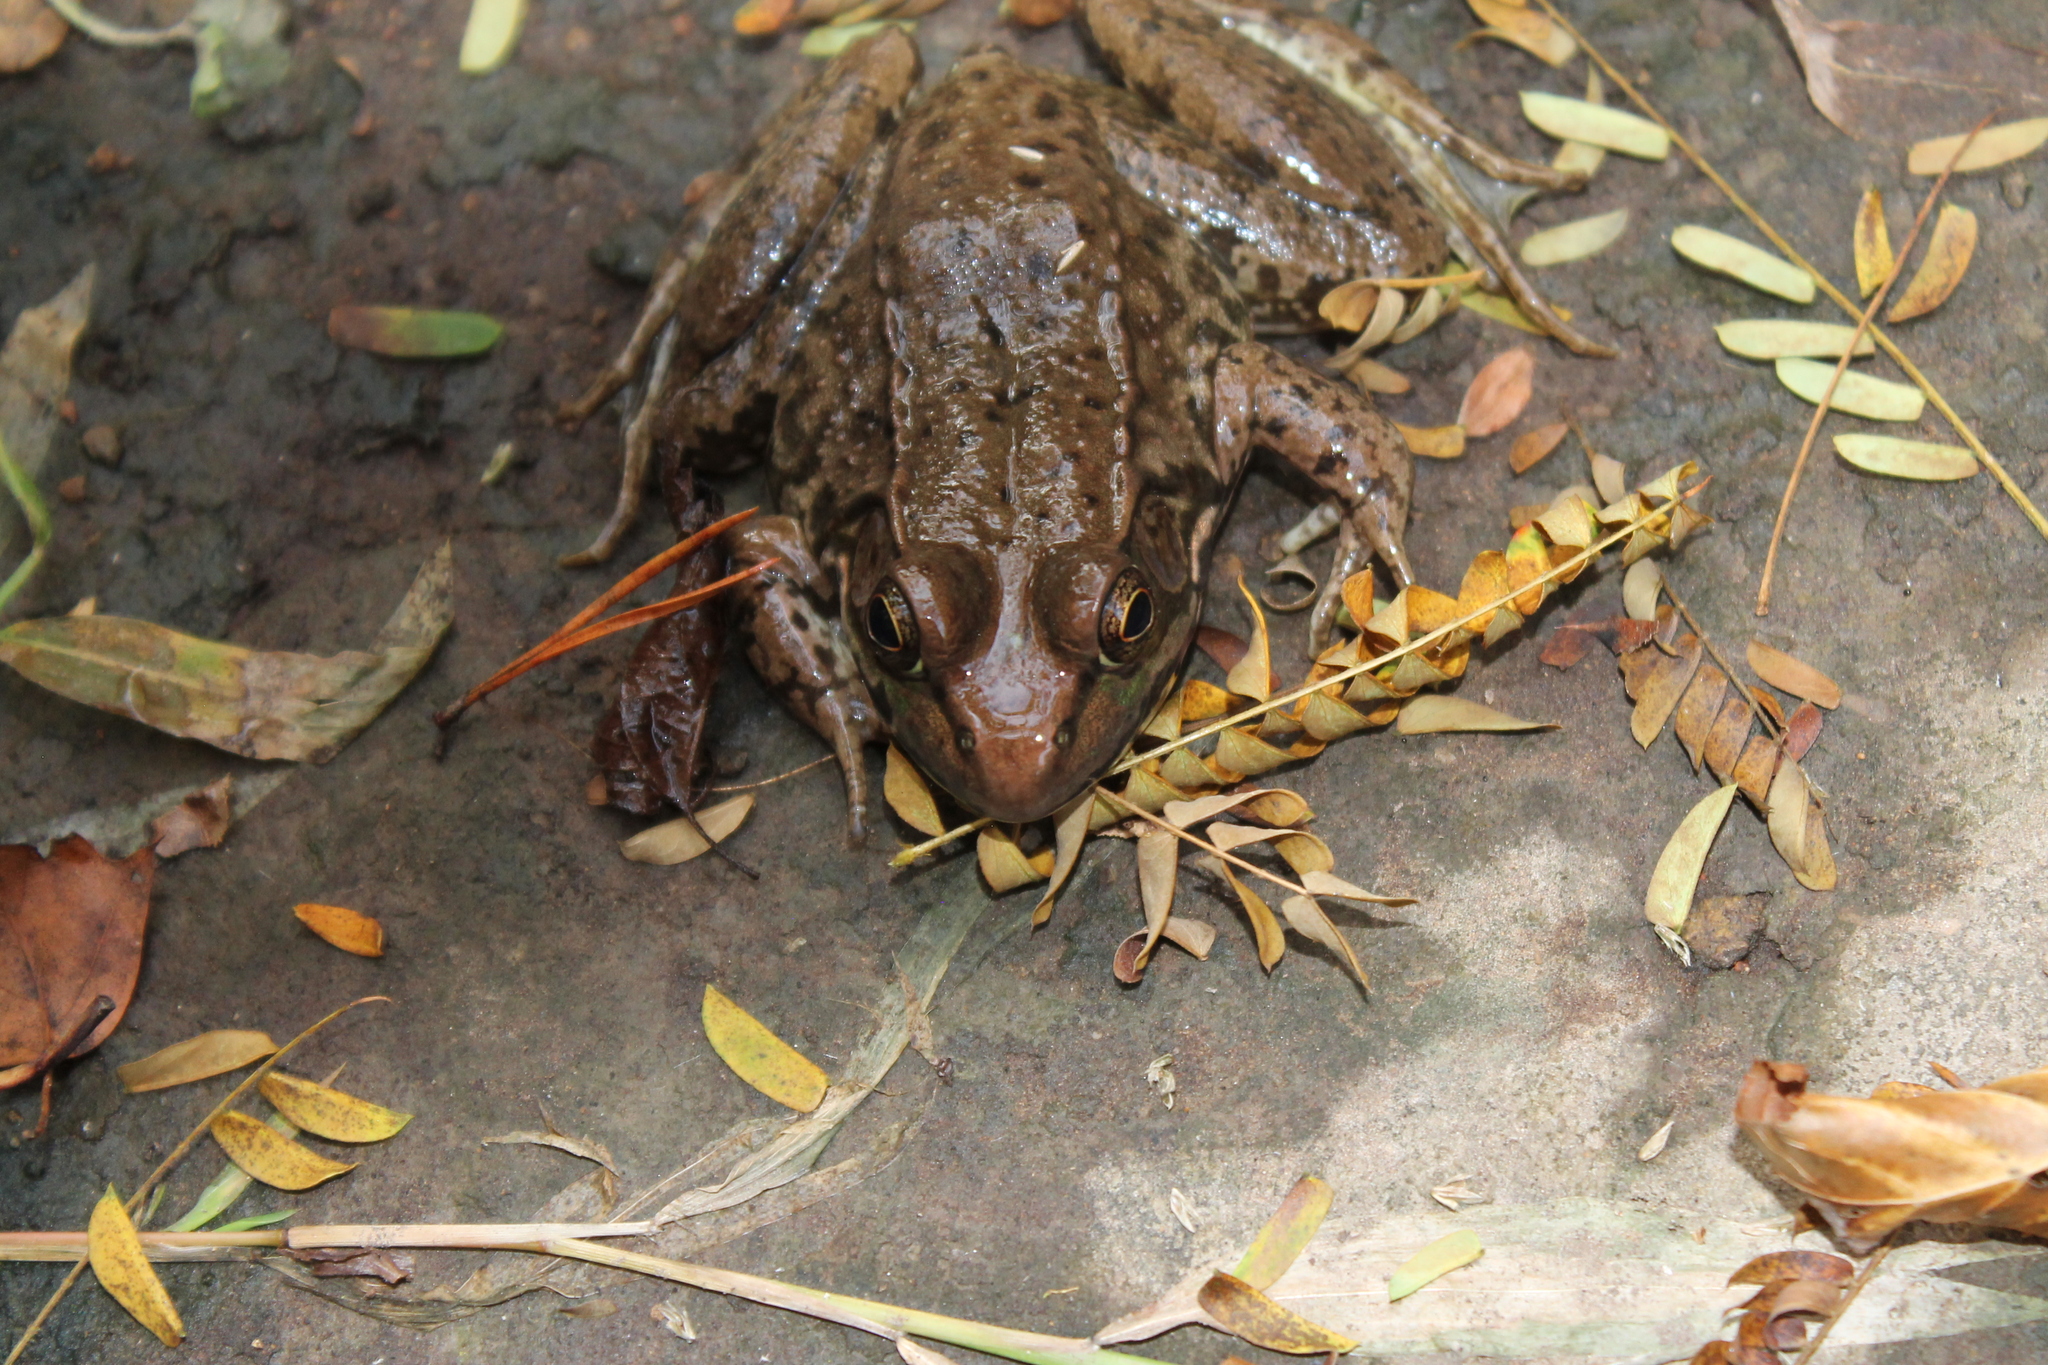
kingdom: Animalia
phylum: Chordata
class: Amphibia
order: Anura
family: Ranidae
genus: Lithobates
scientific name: Lithobates clamitans
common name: Green frog
